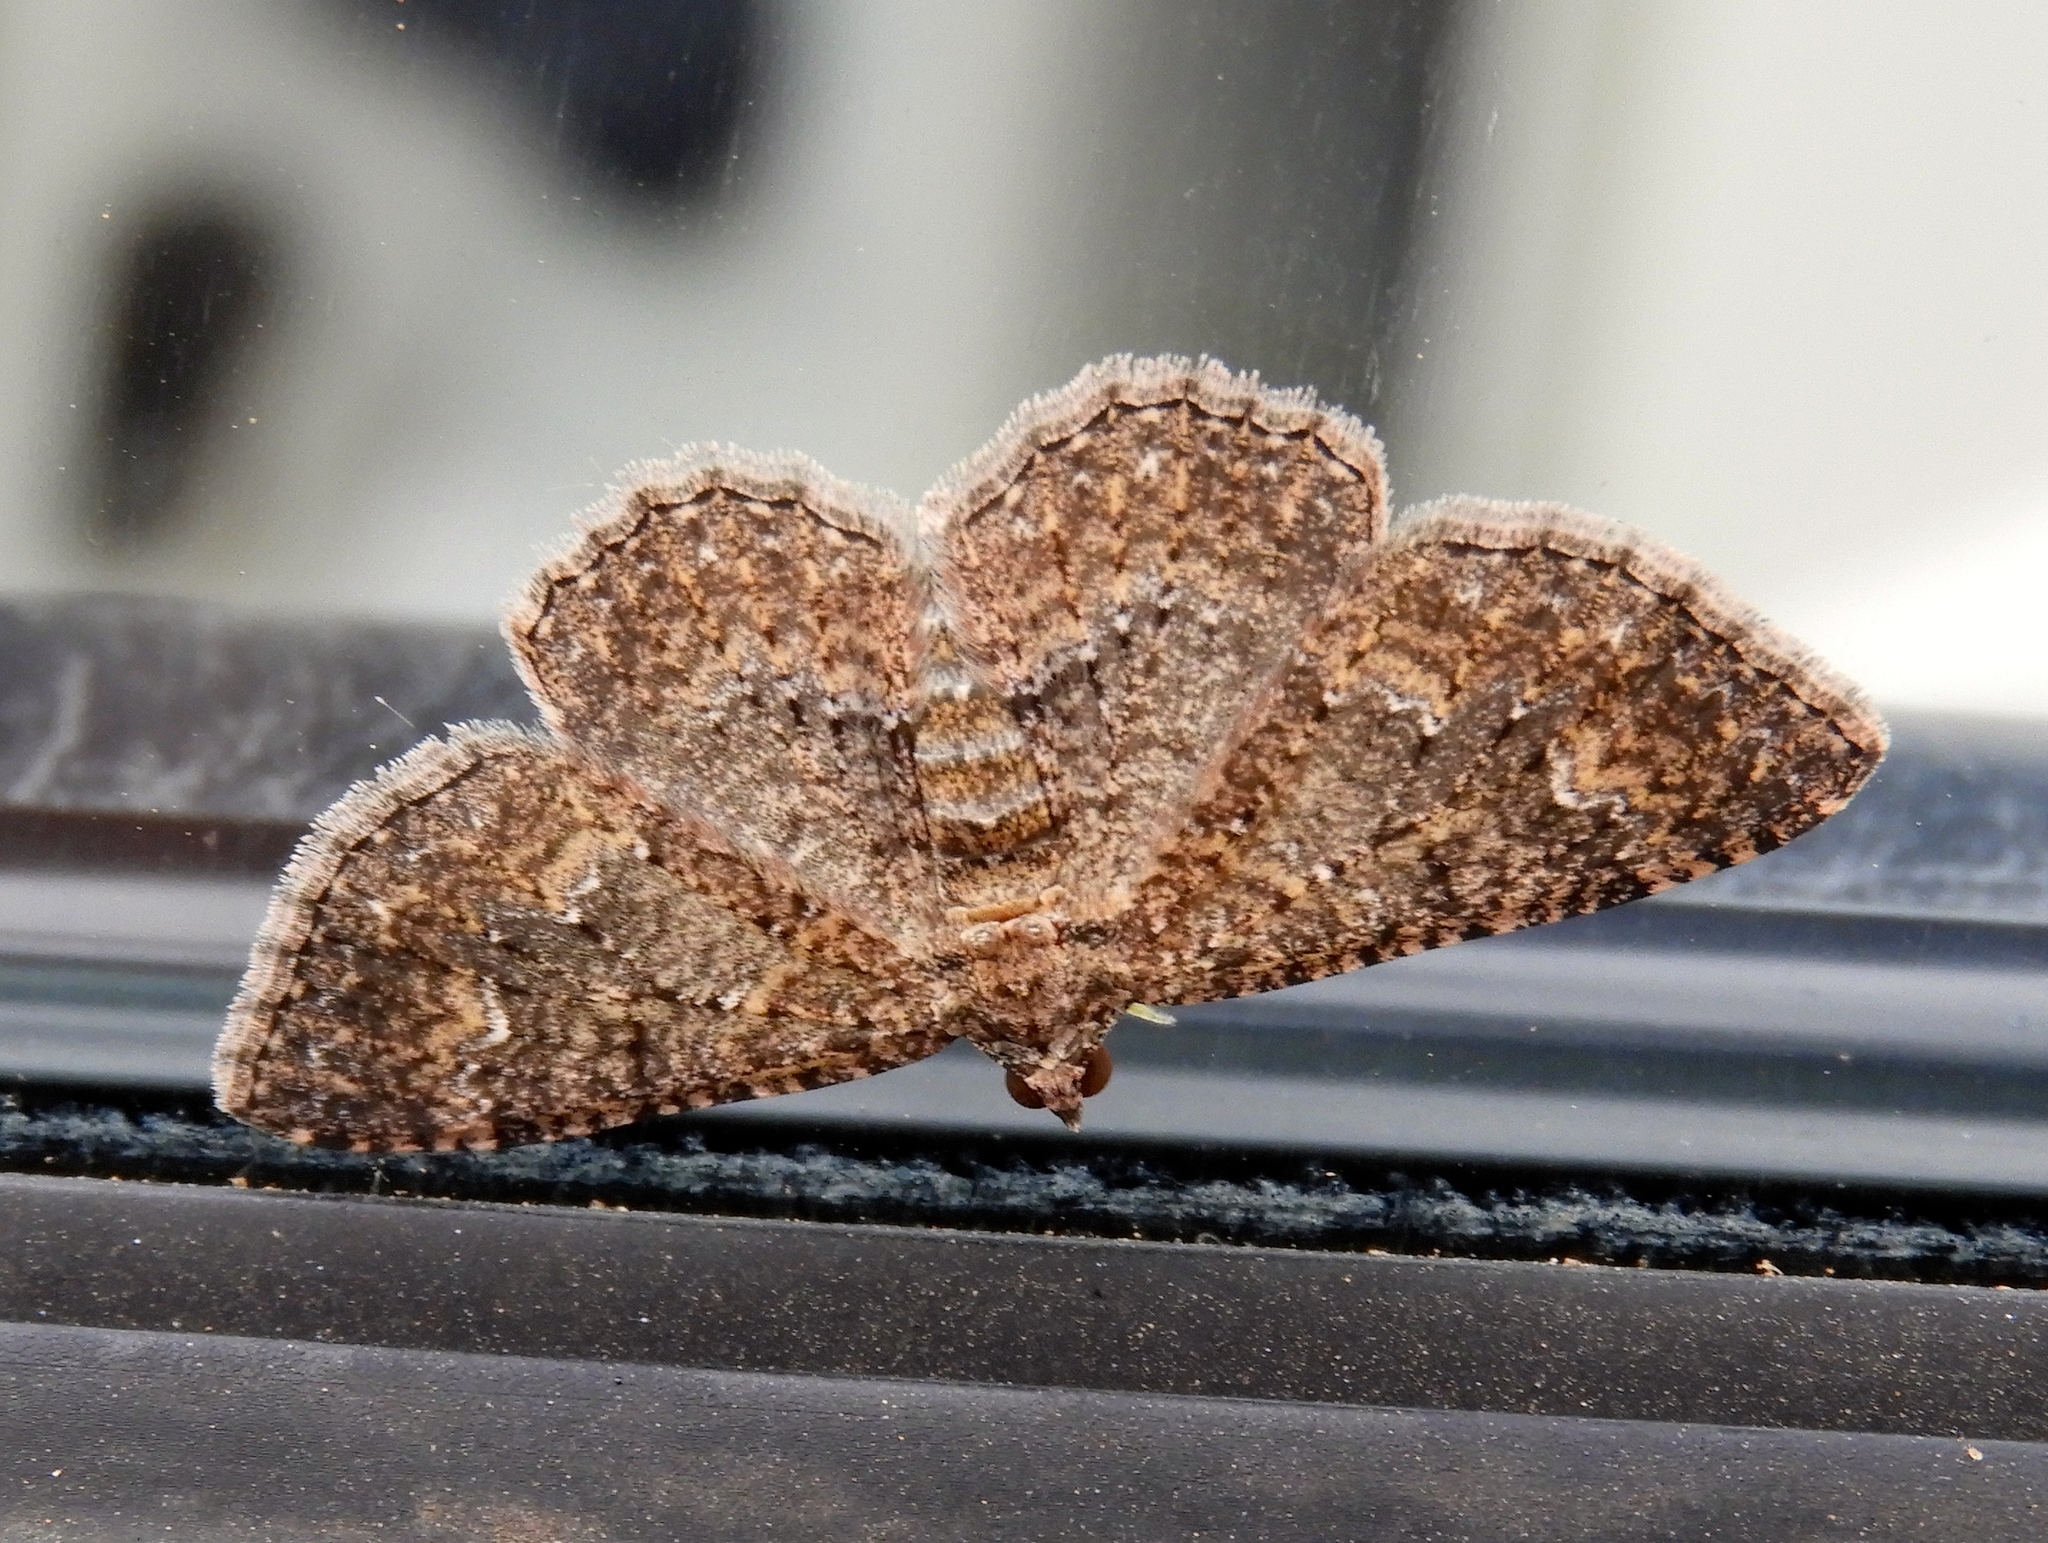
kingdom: Animalia
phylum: Arthropoda
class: Insecta
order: Lepidoptera
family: Geometridae
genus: Disclisioprocta
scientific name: Disclisioprocta stellata
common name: Somber carpet
